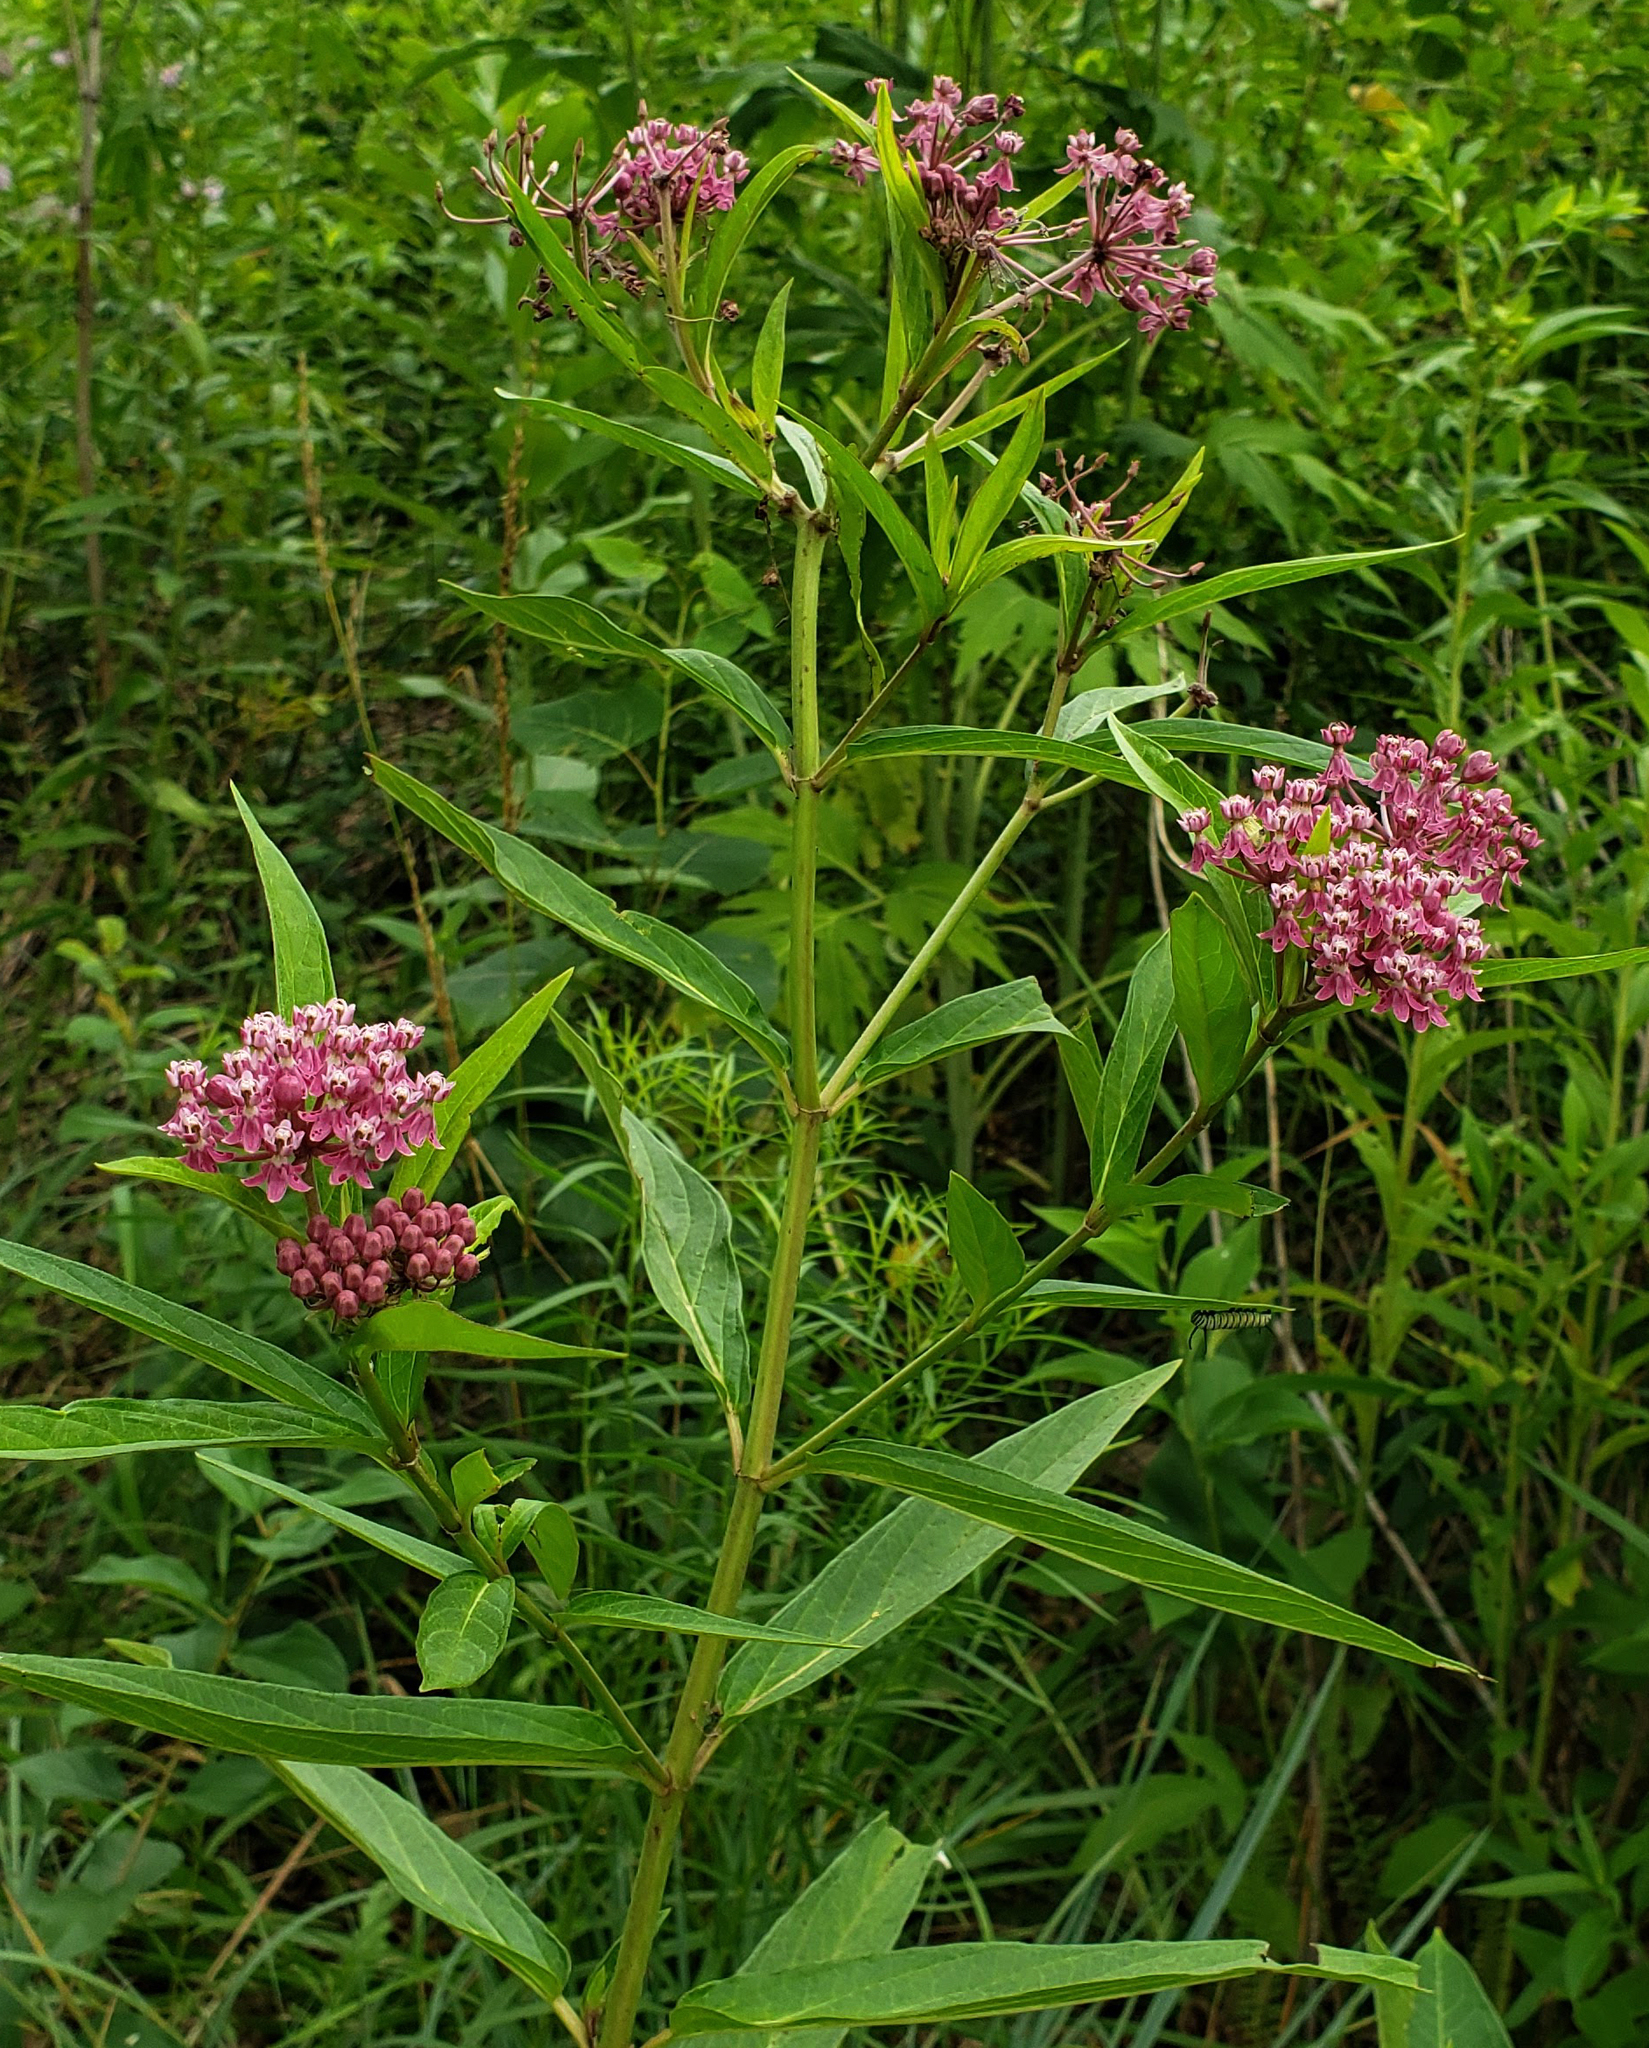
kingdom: Plantae
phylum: Tracheophyta
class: Magnoliopsida
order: Gentianales
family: Apocynaceae
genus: Asclepias
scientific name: Asclepias incarnata
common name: Swamp milkweed
